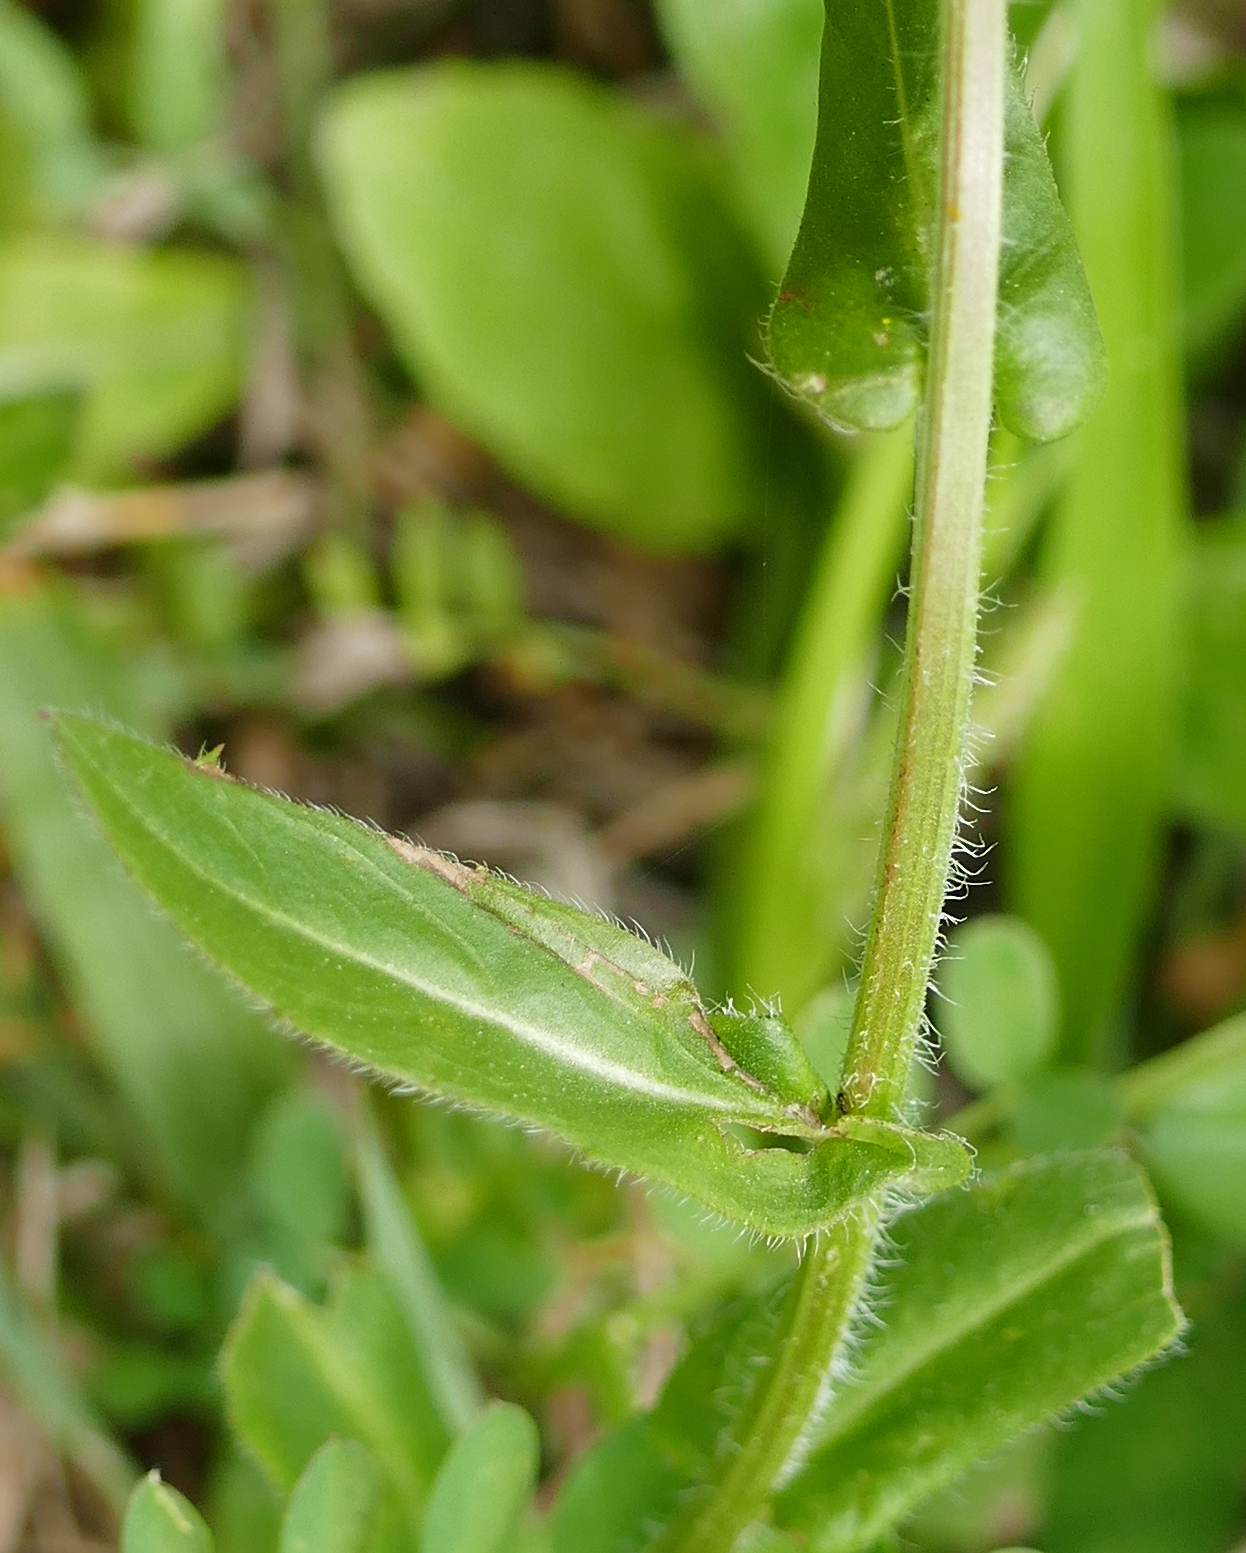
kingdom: Plantae
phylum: Tracheophyta
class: Magnoliopsida
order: Asterales
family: Asteraceae
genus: Erigeron
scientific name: Erigeron philadelphicus
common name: Robin's-plantain
